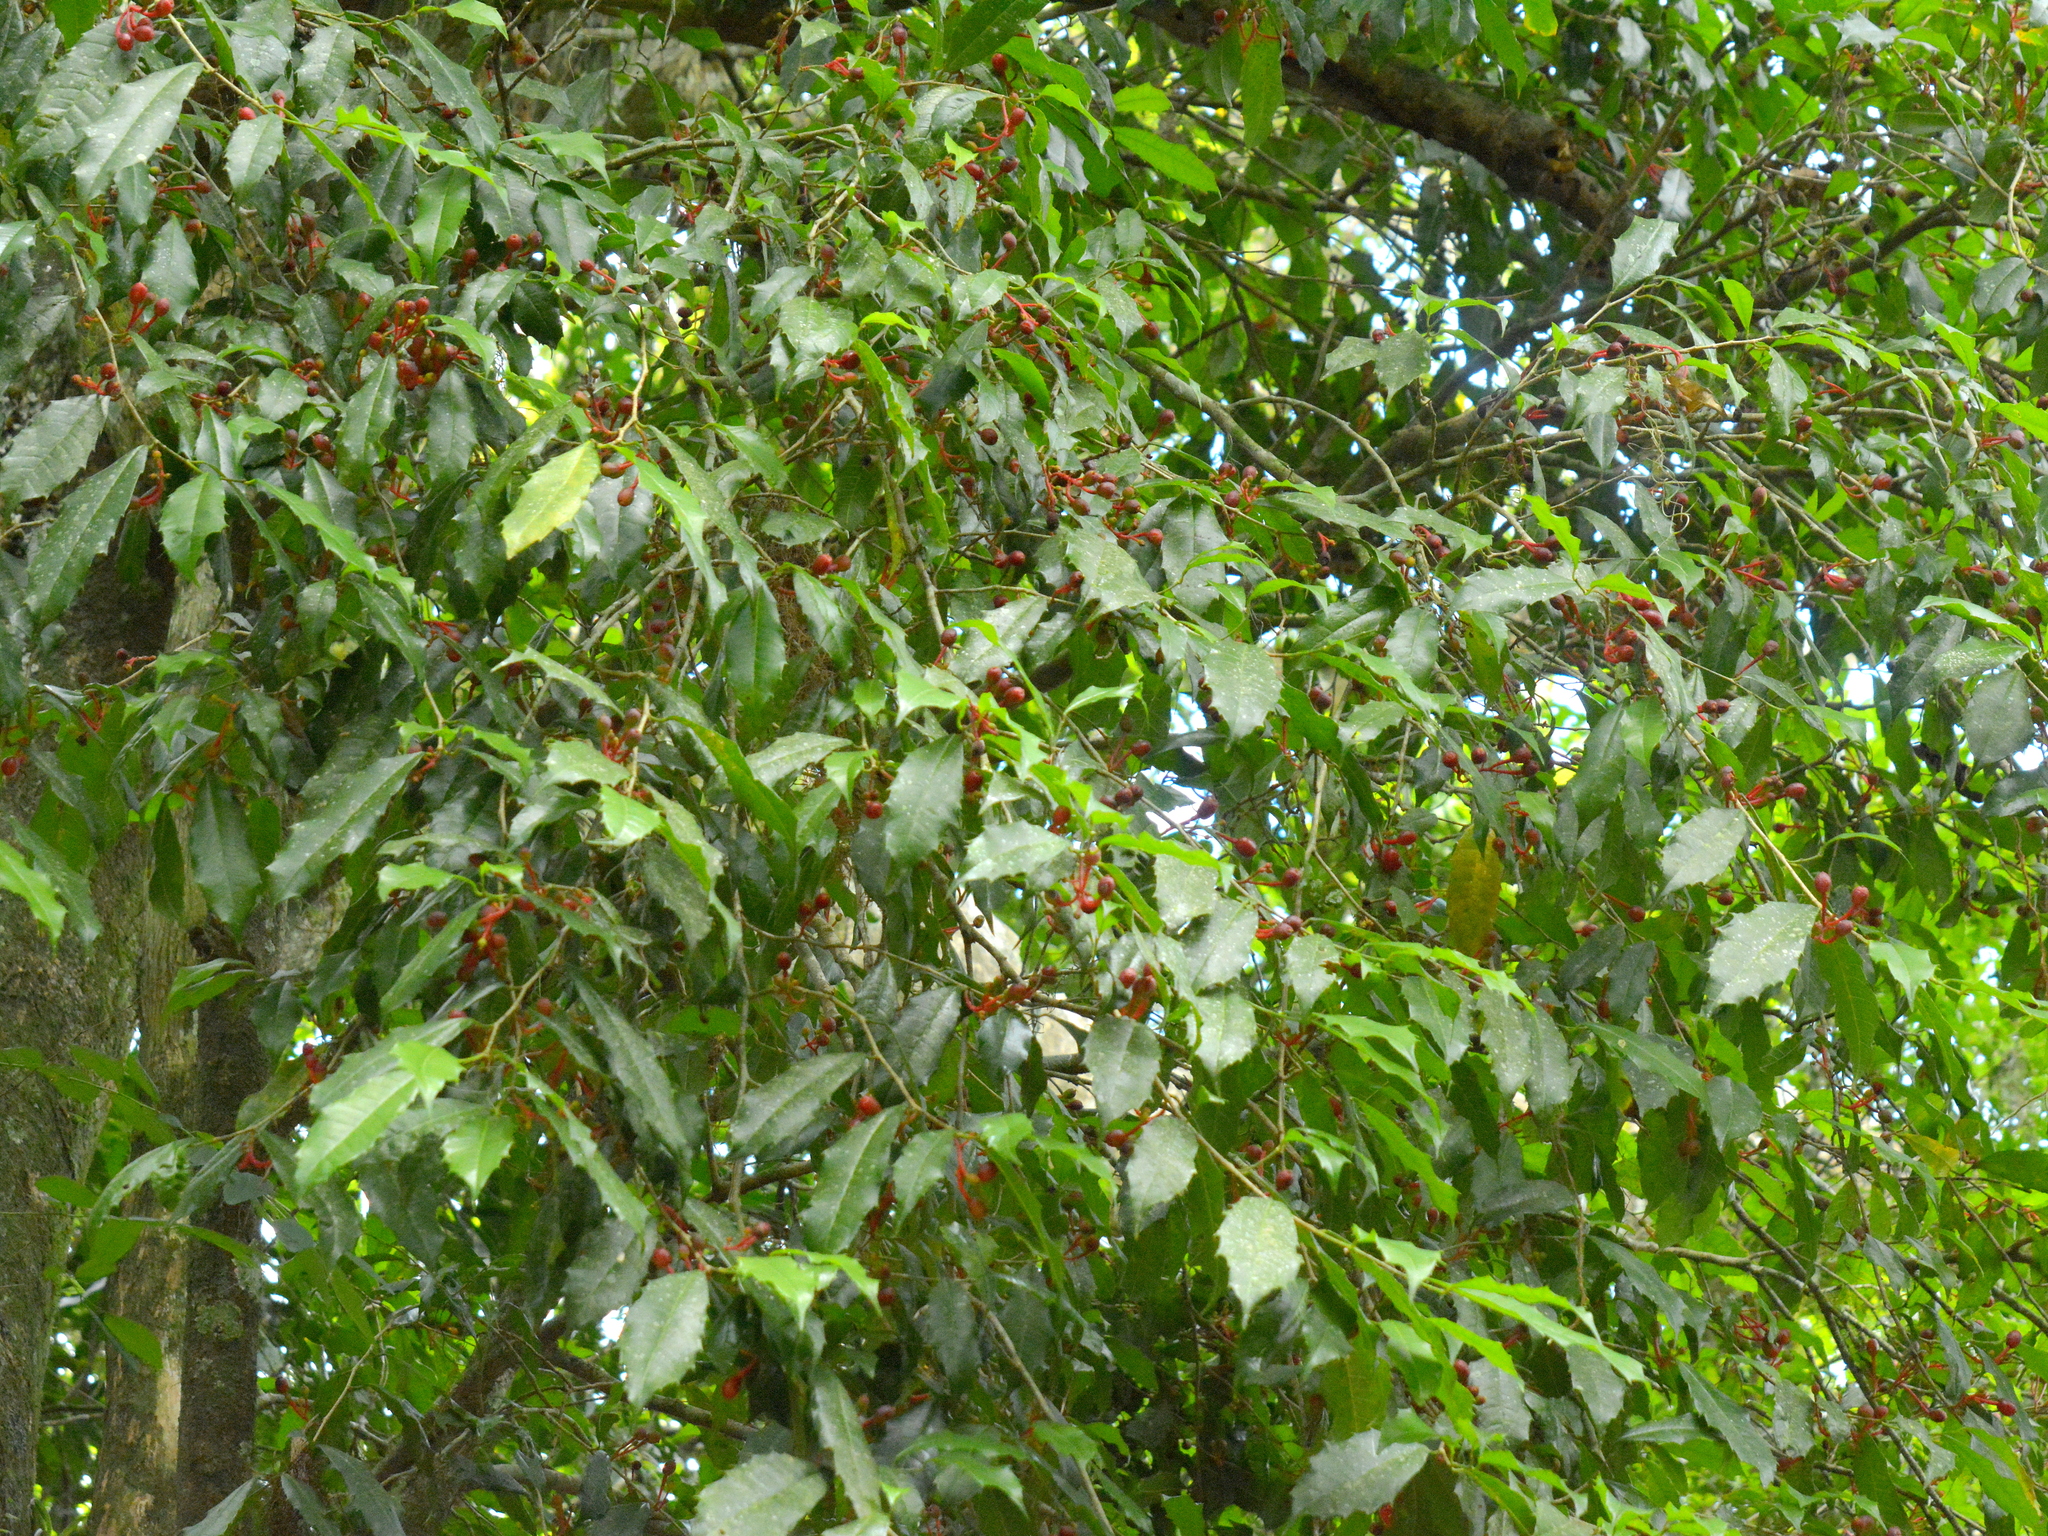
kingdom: Plantae
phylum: Tracheophyta
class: Magnoliopsida
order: Rosales
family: Moraceae
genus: Sorocea
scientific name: Sorocea bonplandii
